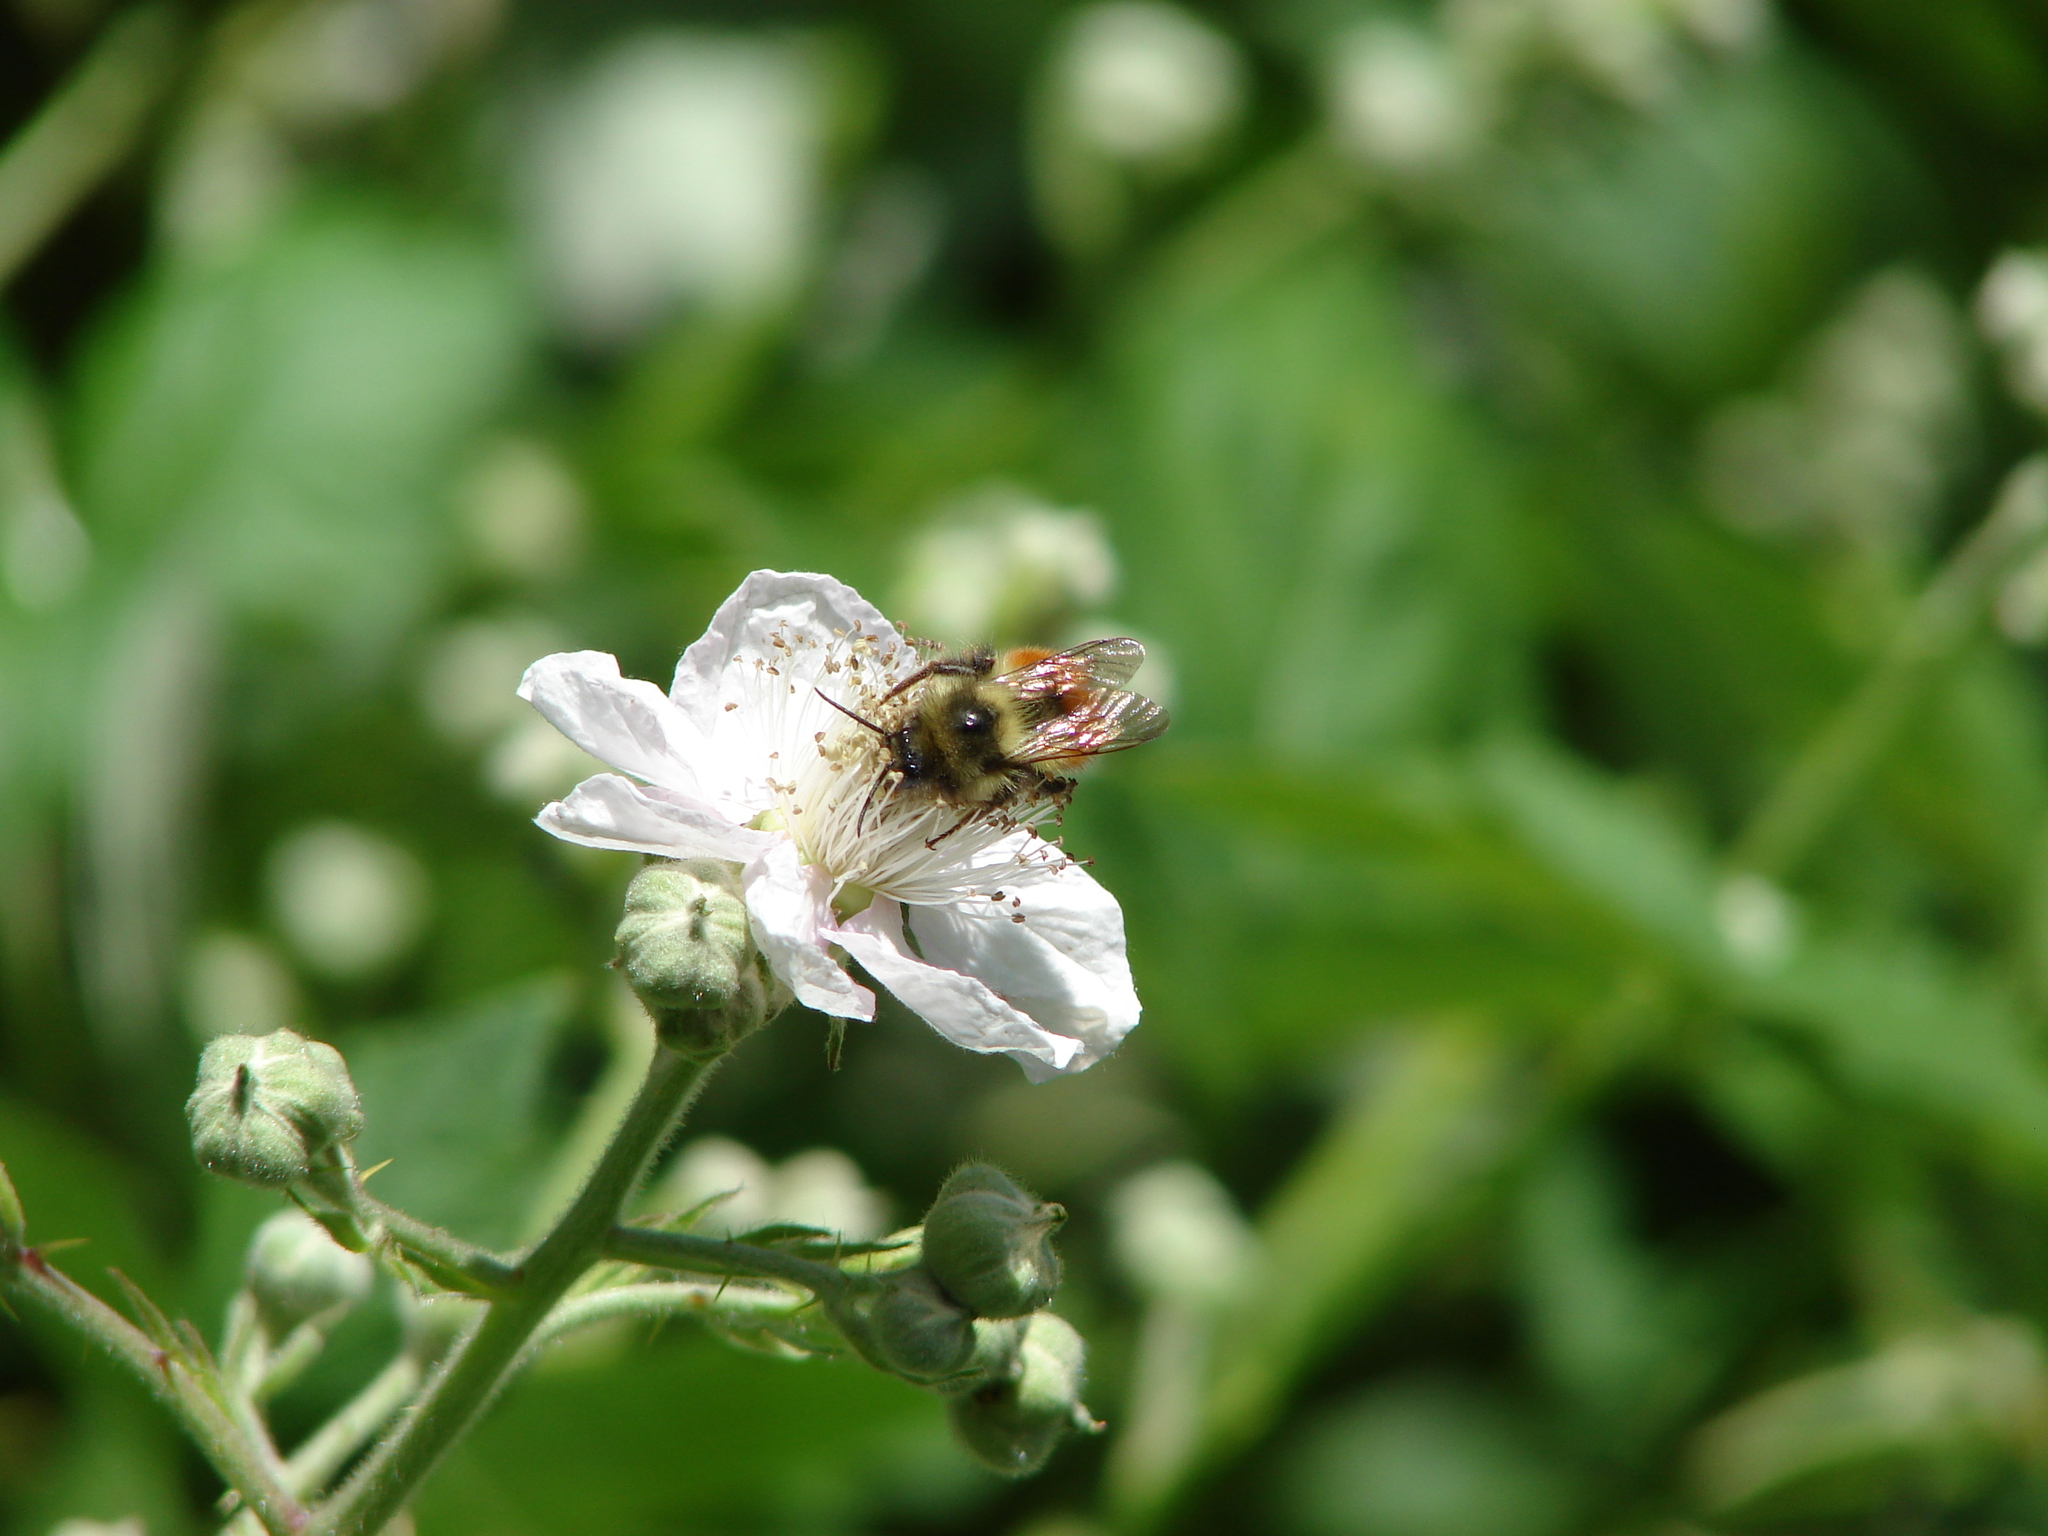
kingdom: Animalia
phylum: Arthropoda
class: Insecta
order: Hymenoptera
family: Apidae
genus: Bombus
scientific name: Bombus melanopygus
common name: Black tail bumble bee
